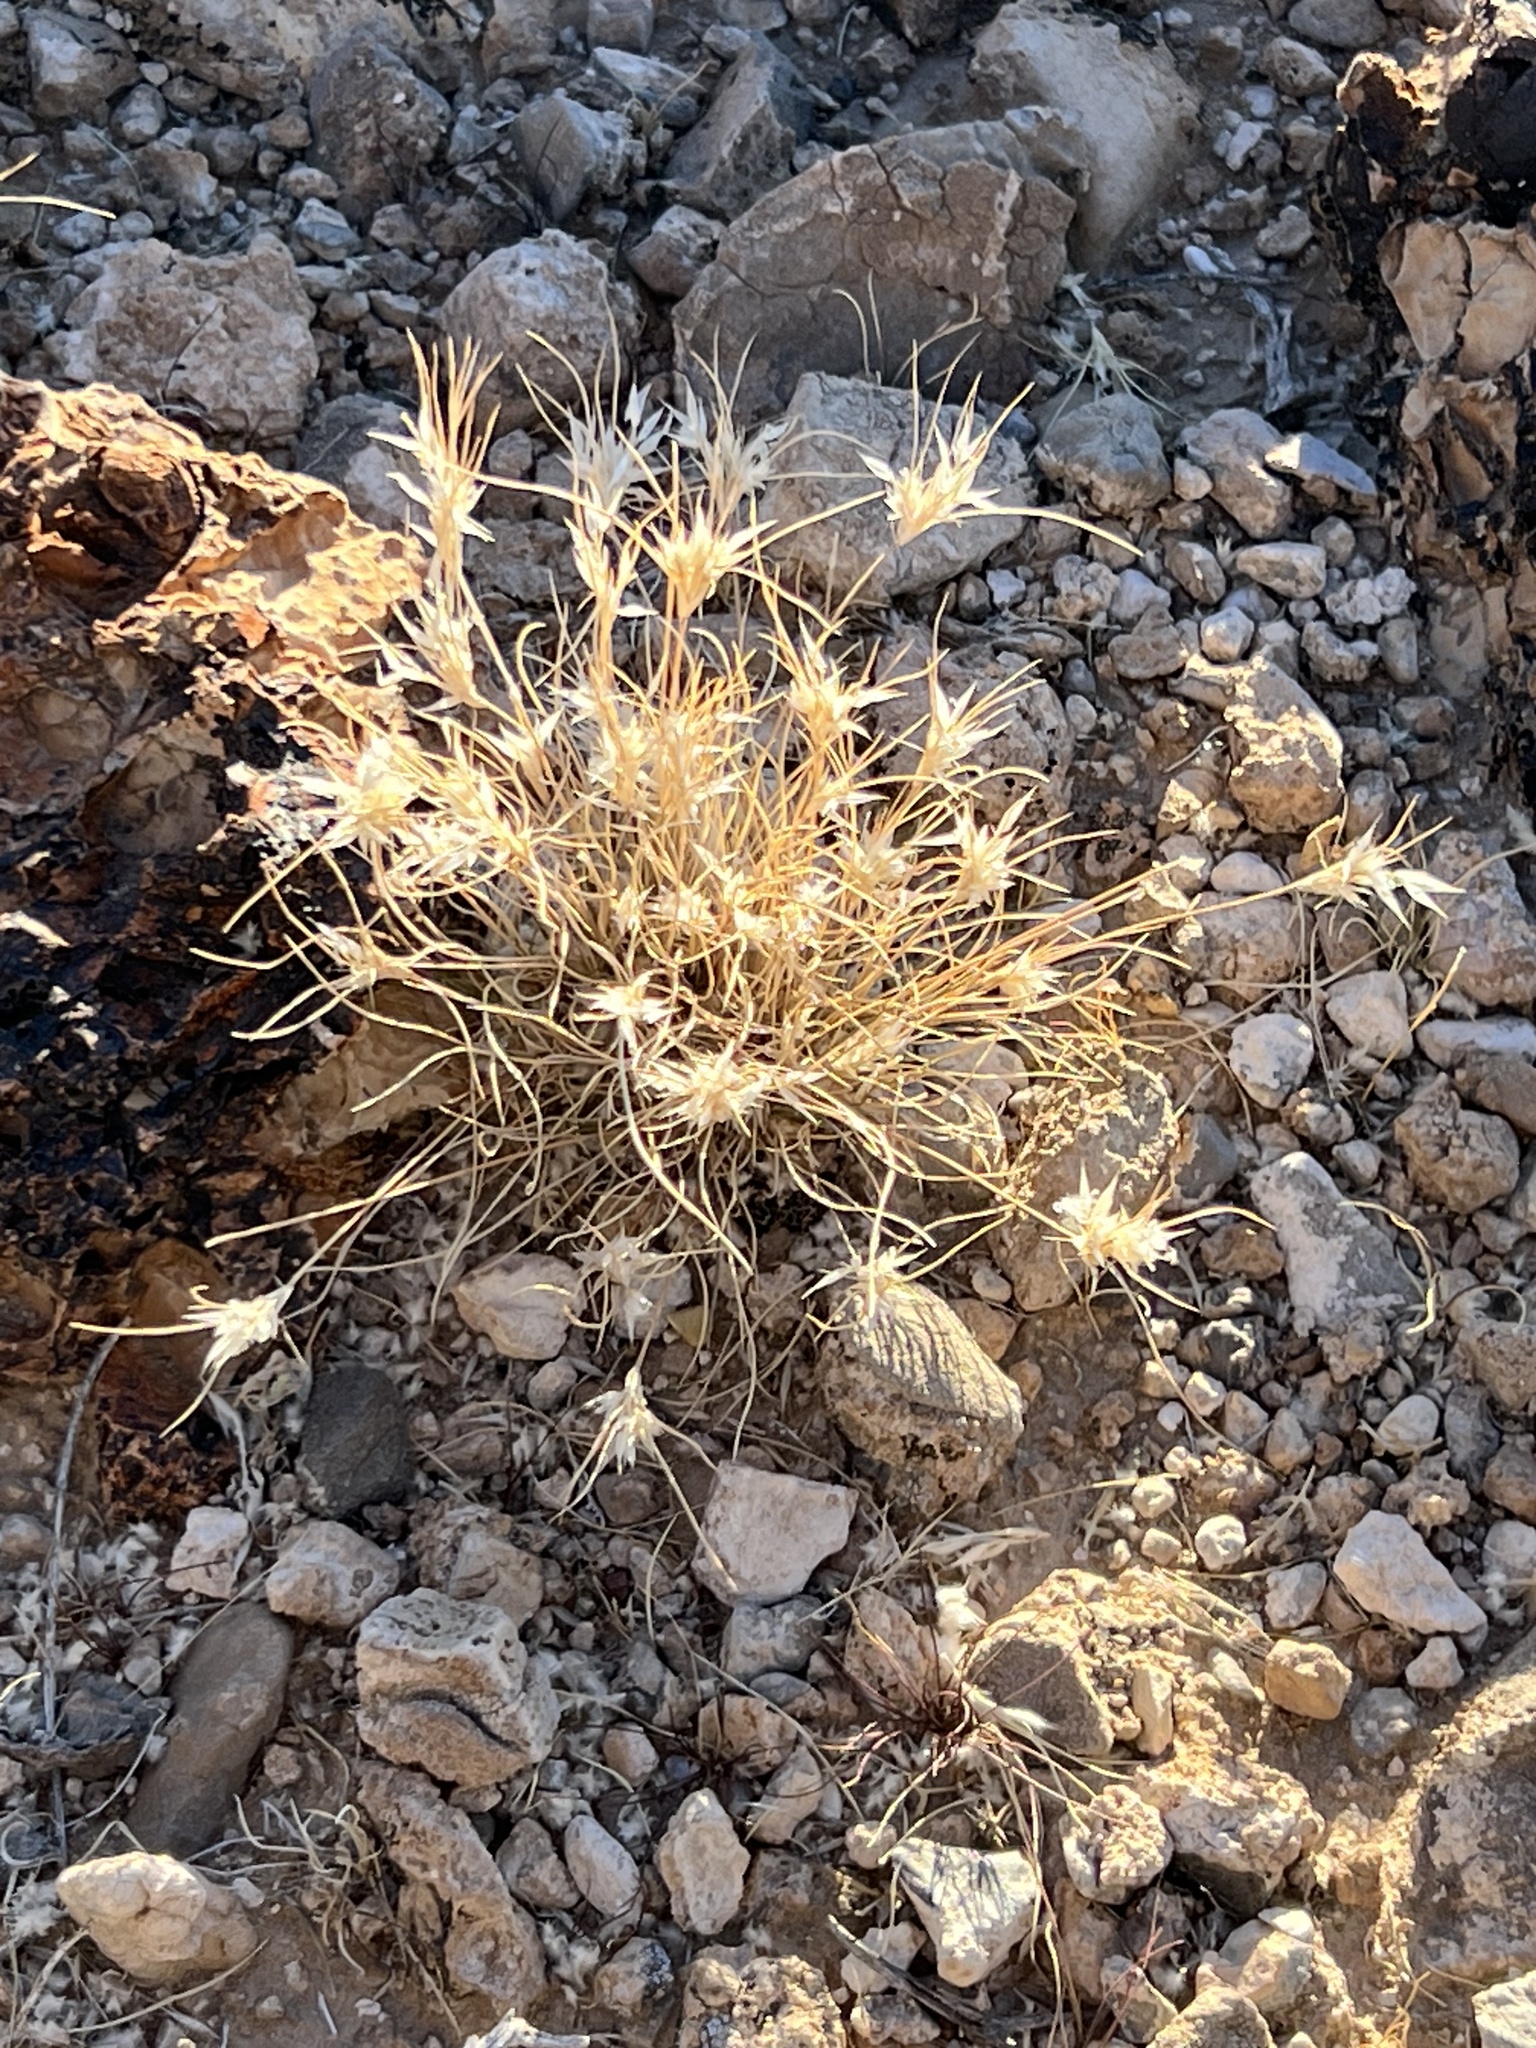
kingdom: Plantae
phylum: Tracheophyta
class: Liliopsida
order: Poales
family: Poaceae
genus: Dasyochloa
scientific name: Dasyochloa pulchella
